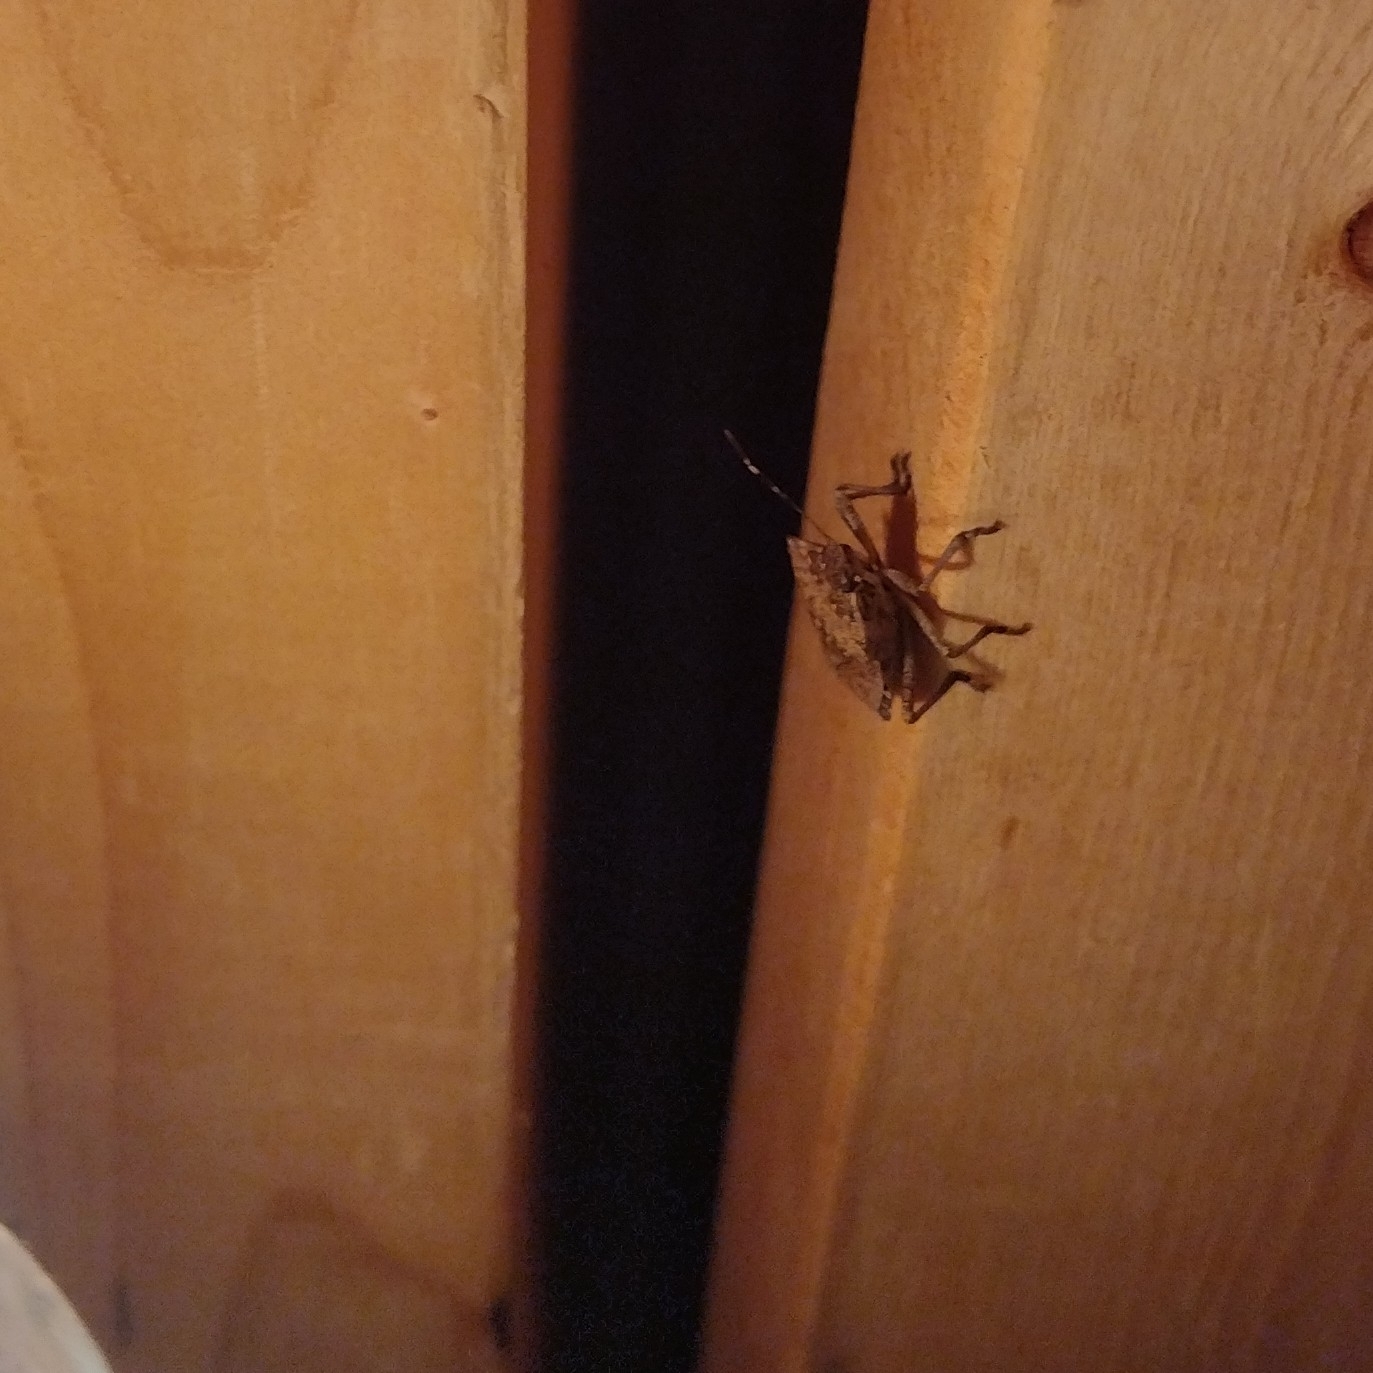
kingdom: Animalia
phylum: Arthropoda
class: Insecta
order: Hemiptera
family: Pentatomidae
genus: Halyomorpha
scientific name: Halyomorpha halys
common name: Brown marmorated stink bug
